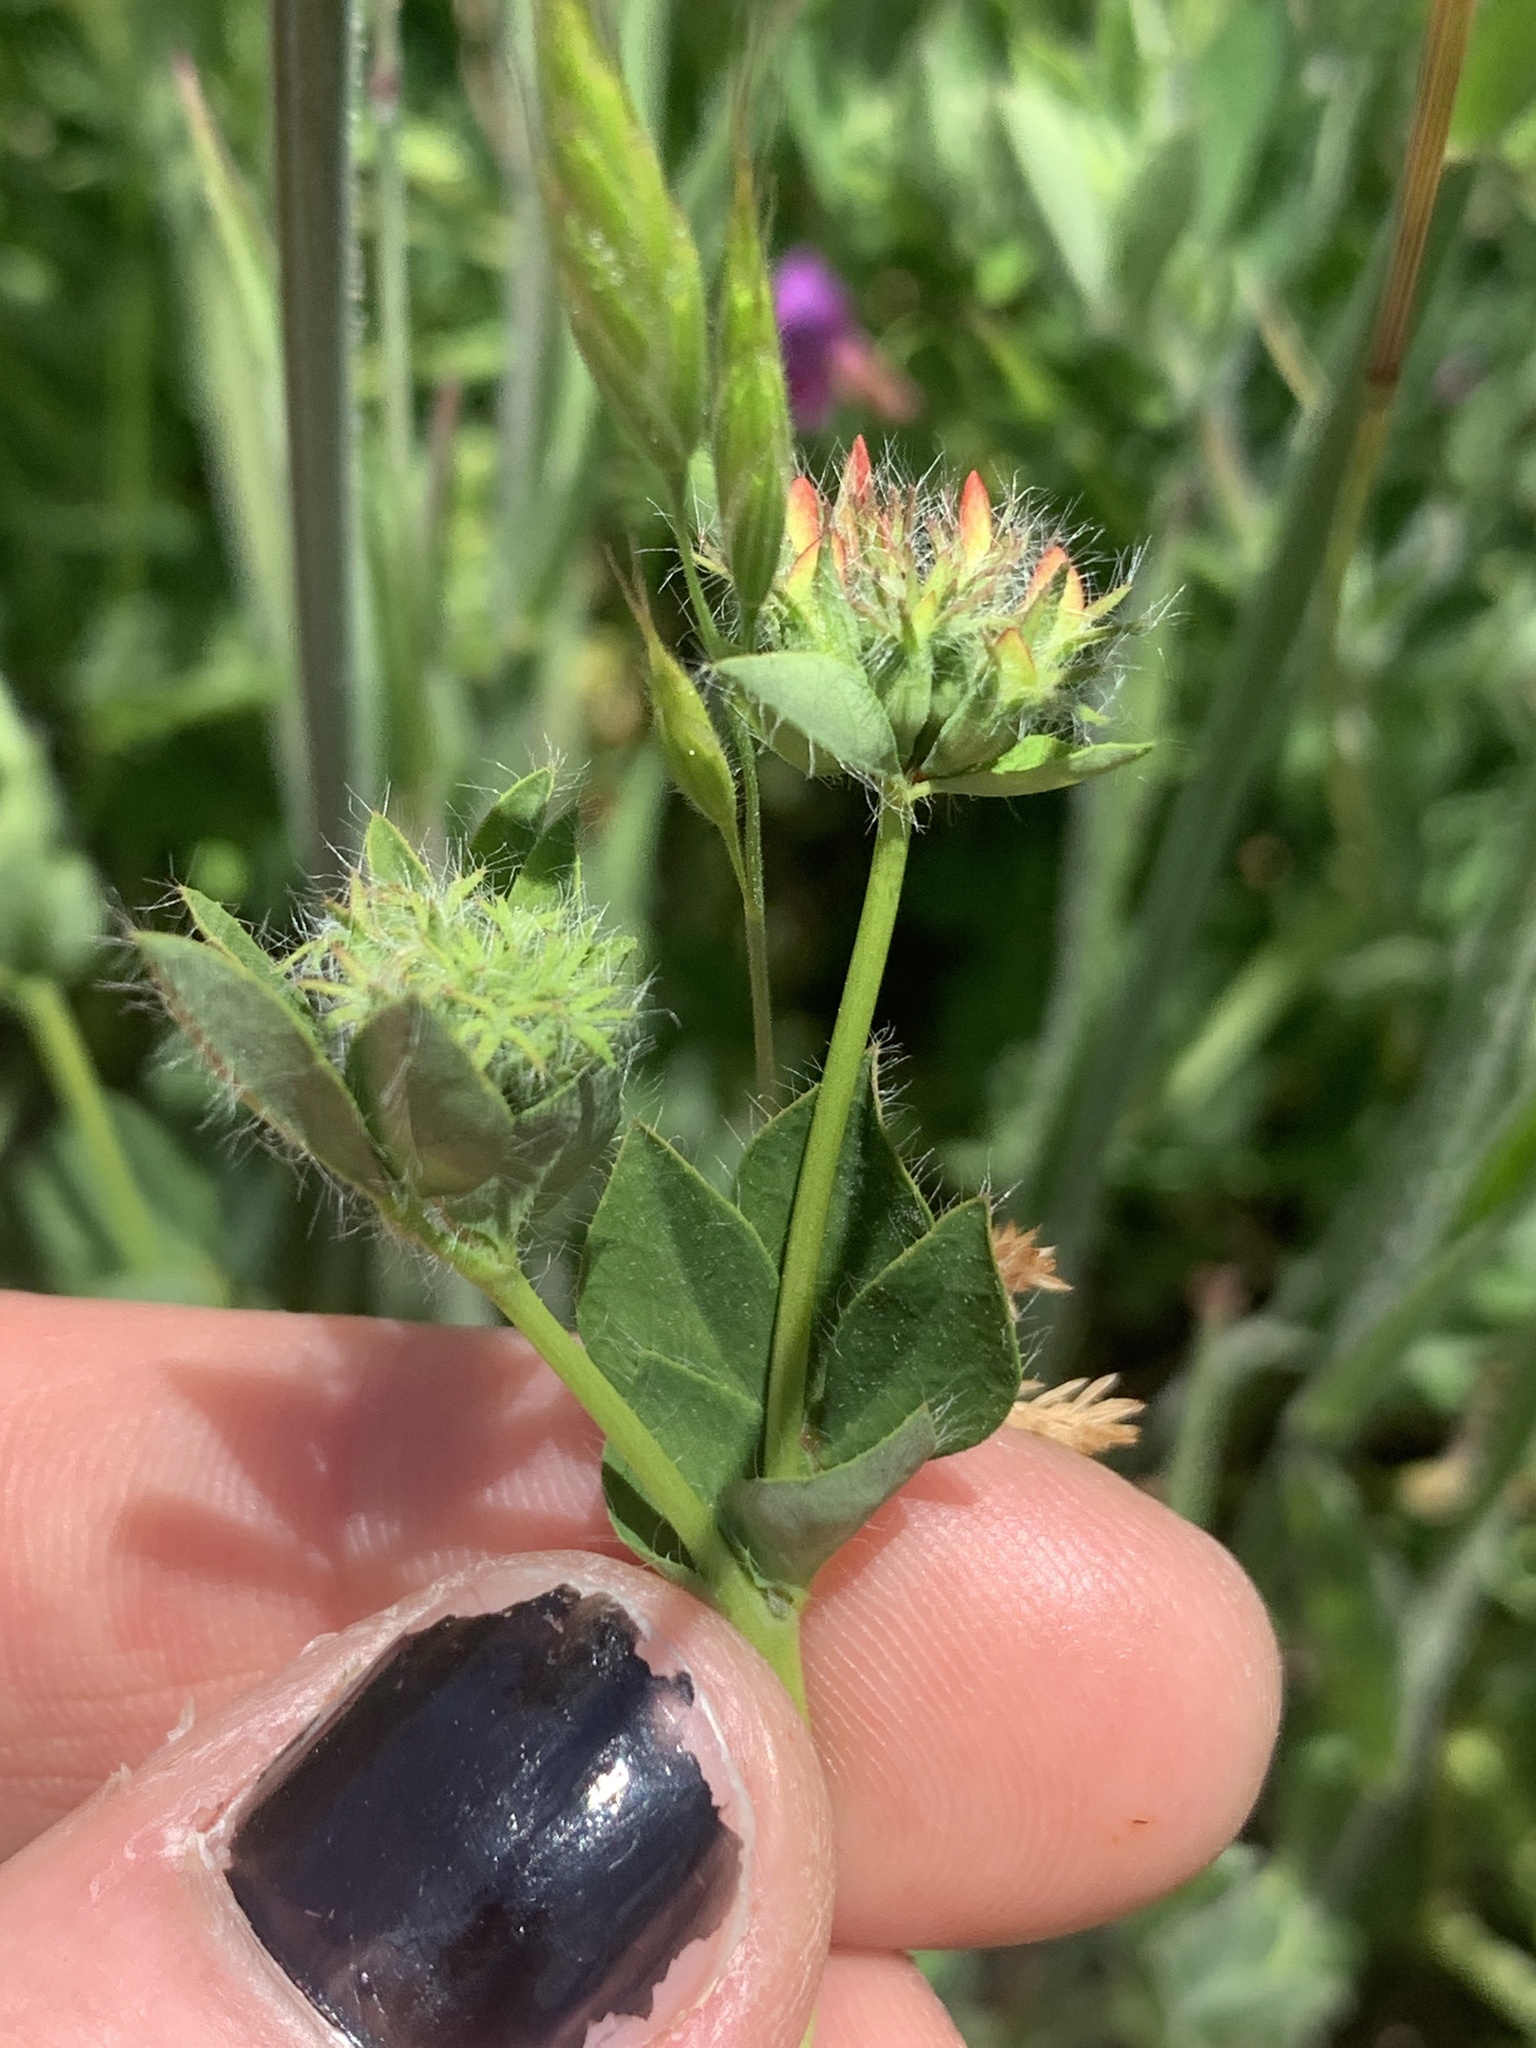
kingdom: Plantae
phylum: Tracheophyta
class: Magnoliopsida
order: Fabales
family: Fabaceae
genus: Lotus
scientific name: Lotus pedunculatus
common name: Greater birdsfoot-trefoil
